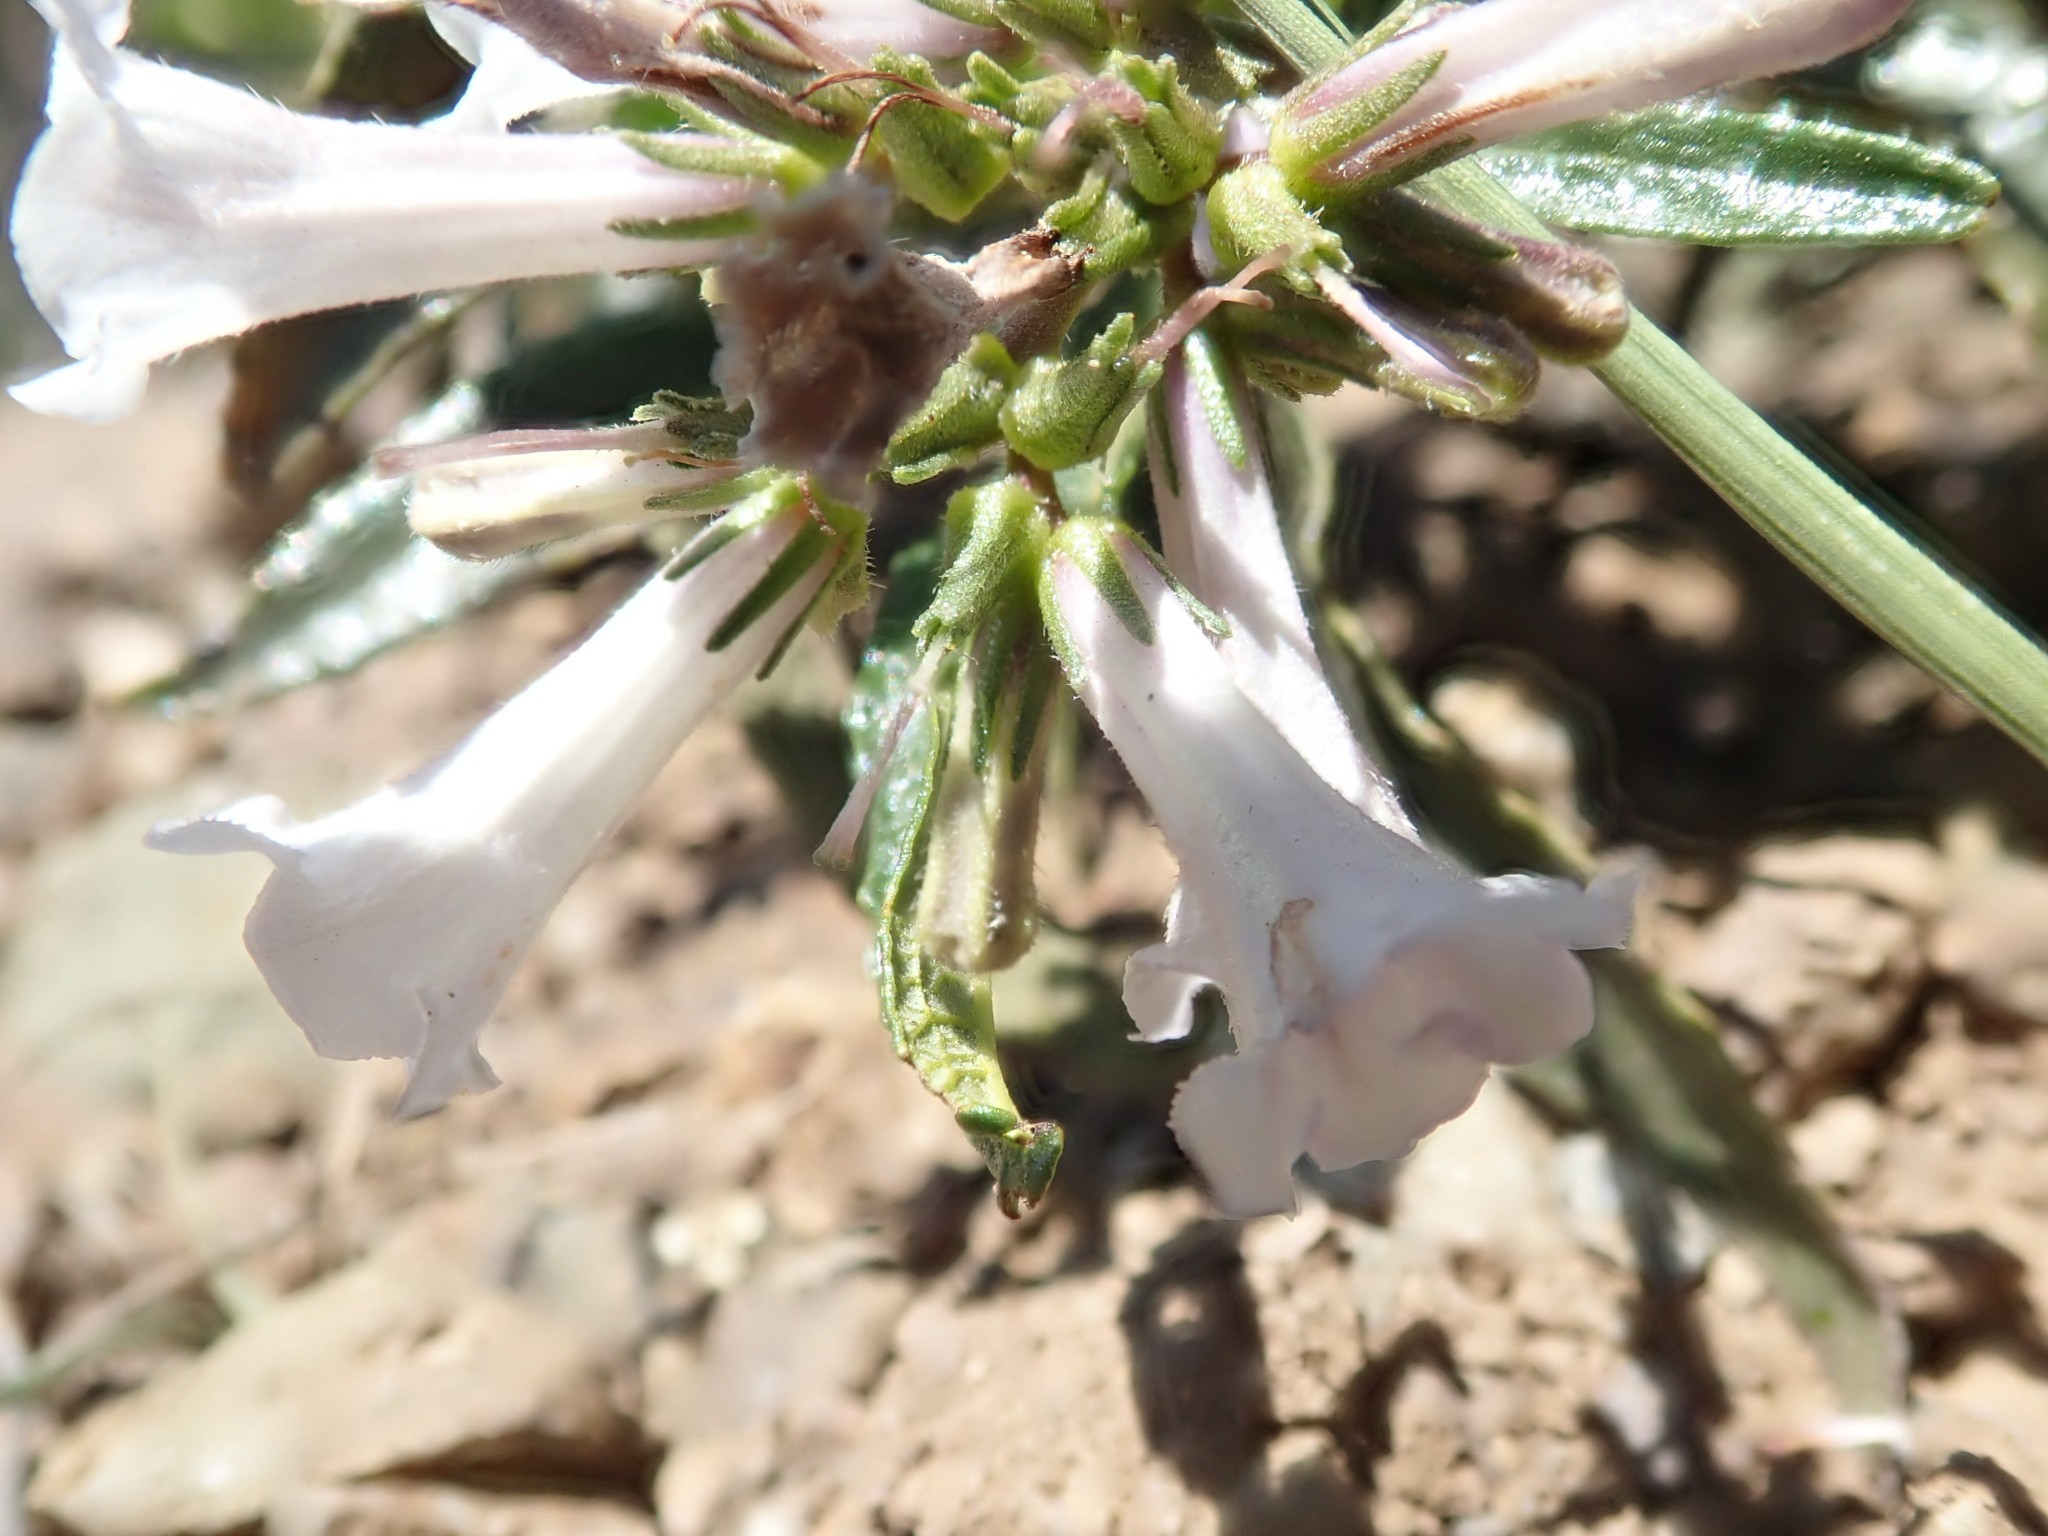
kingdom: Plantae
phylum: Tracheophyta
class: Magnoliopsida
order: Boraginales
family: Namaceae
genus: Eriodictyon
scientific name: Eriodictyon californicum
